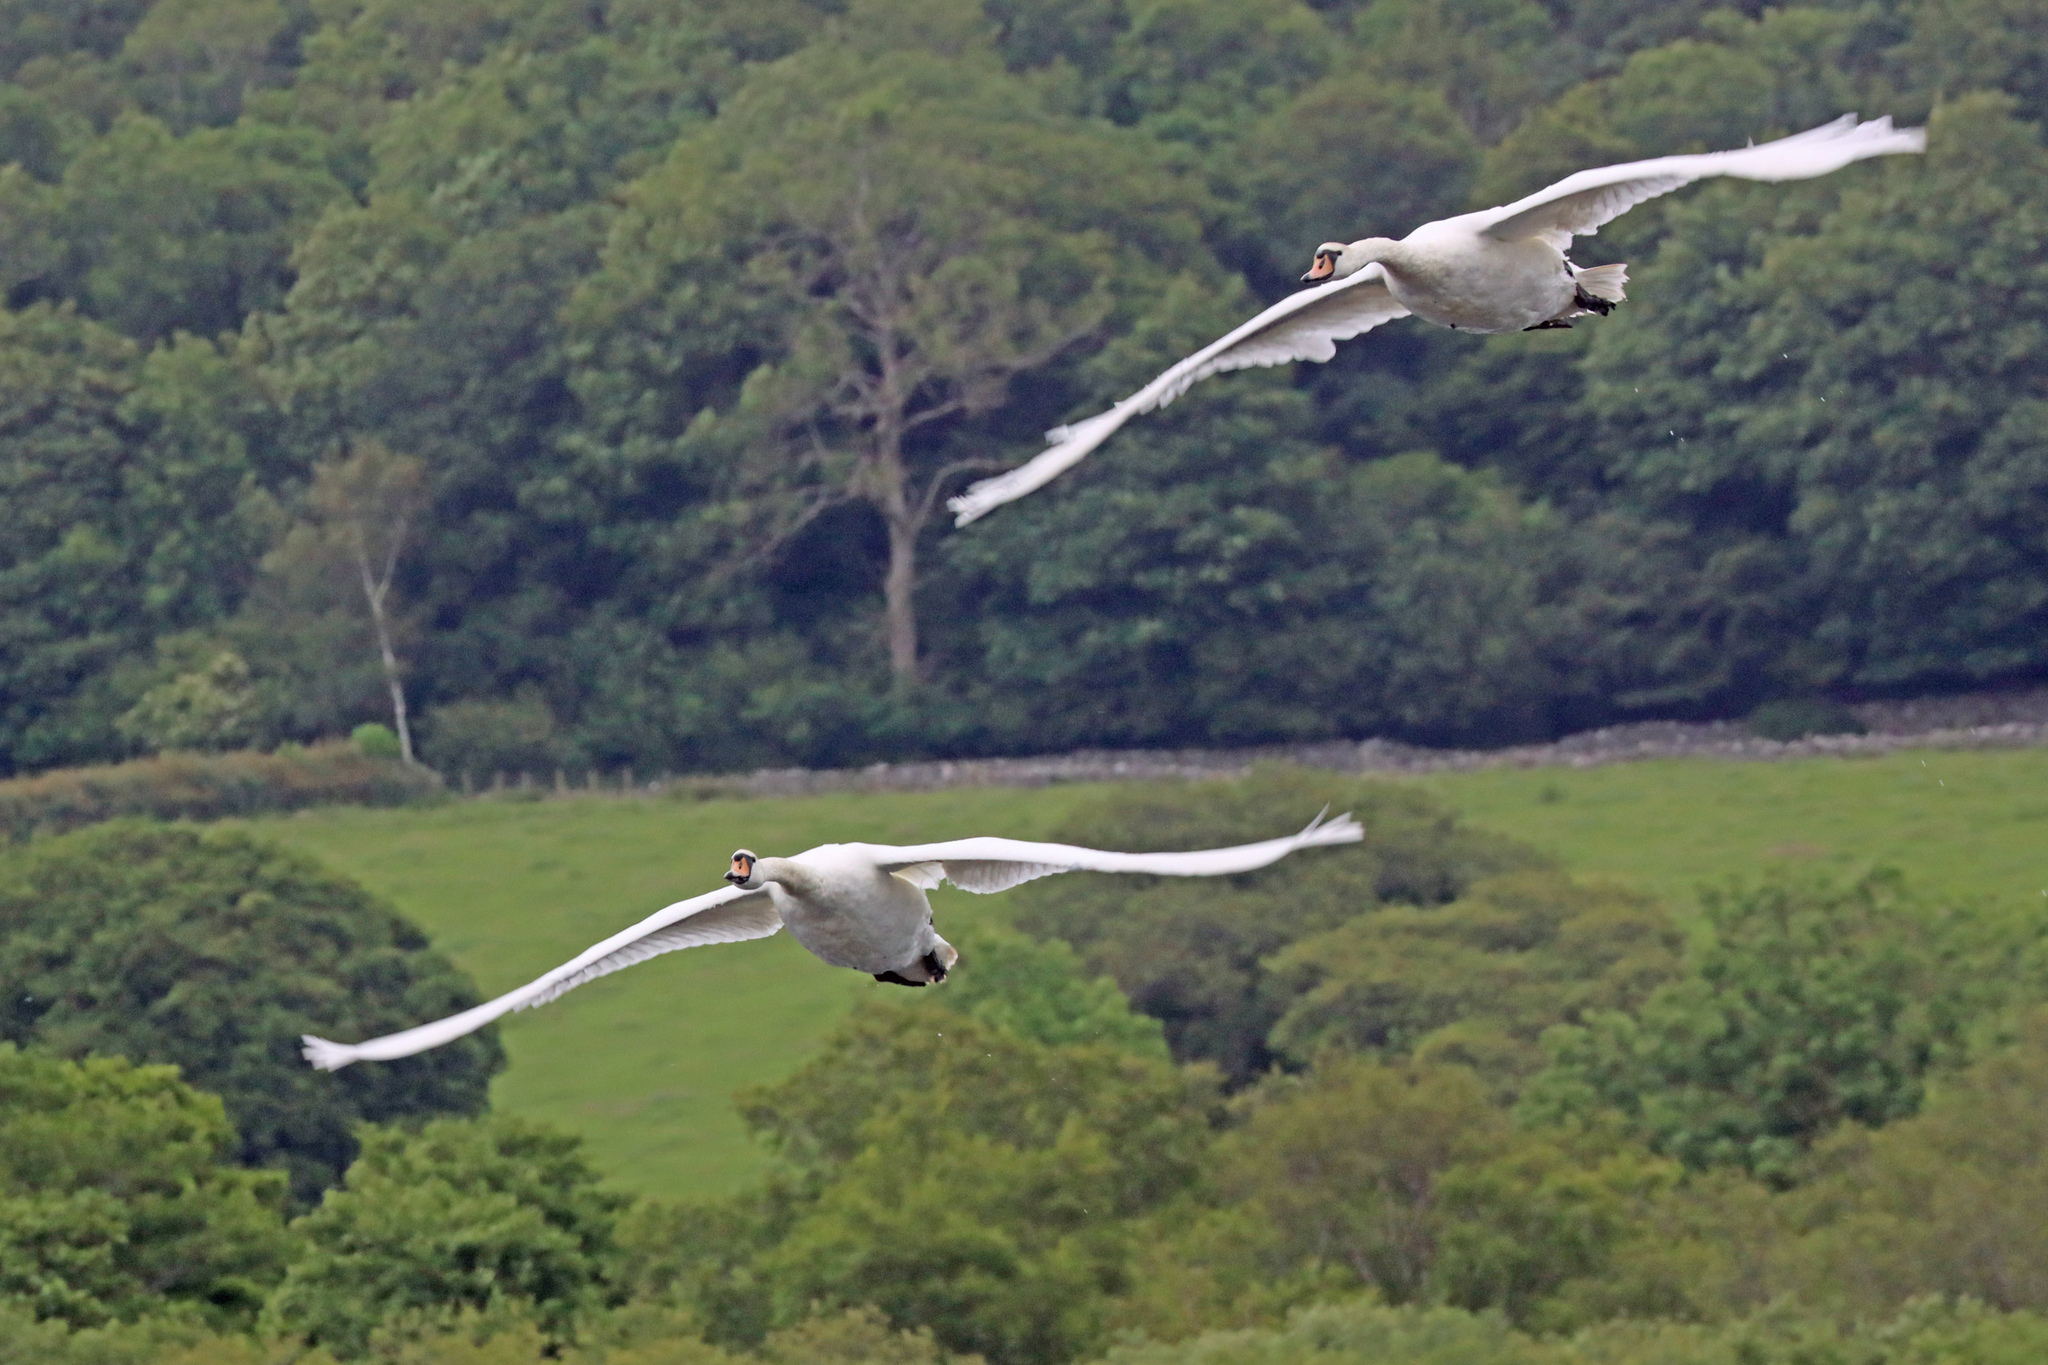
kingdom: Animalia
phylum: Chordata
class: Aves
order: Anseriformes
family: Anatidae
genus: Cygnus
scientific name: Cygnus olor
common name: Mute swan
